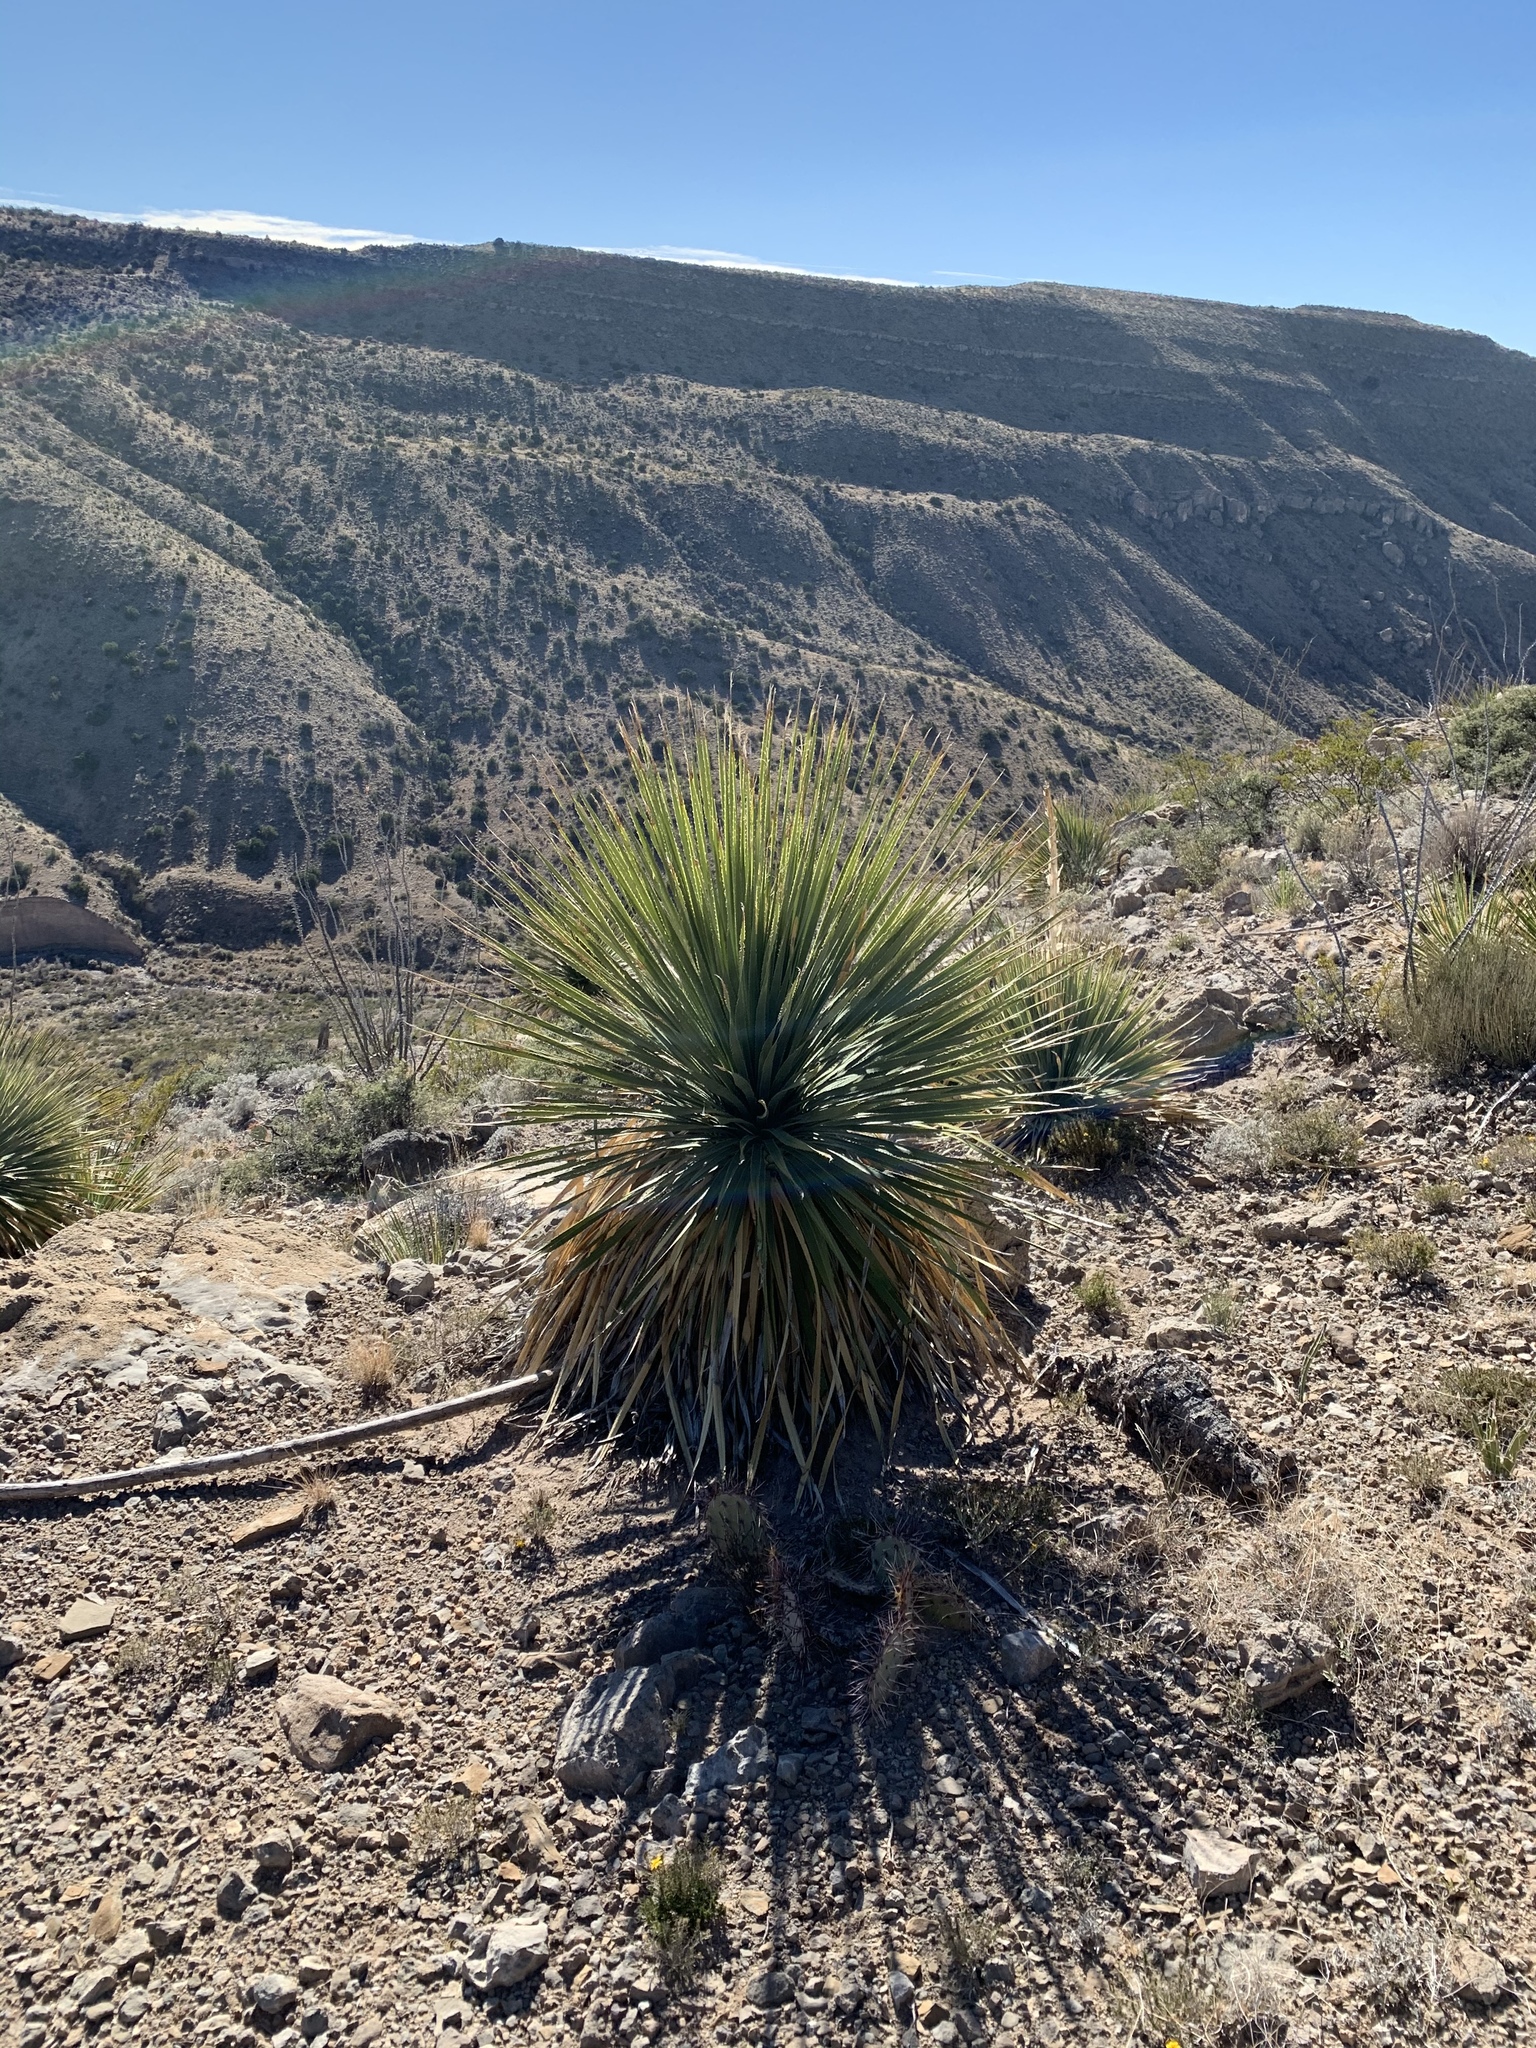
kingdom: Plantae
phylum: Tracheophyta
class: Liliopsida
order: Asparagales
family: Asparagaceae
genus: Dasylirion
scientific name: Dasylirion wheeleri
